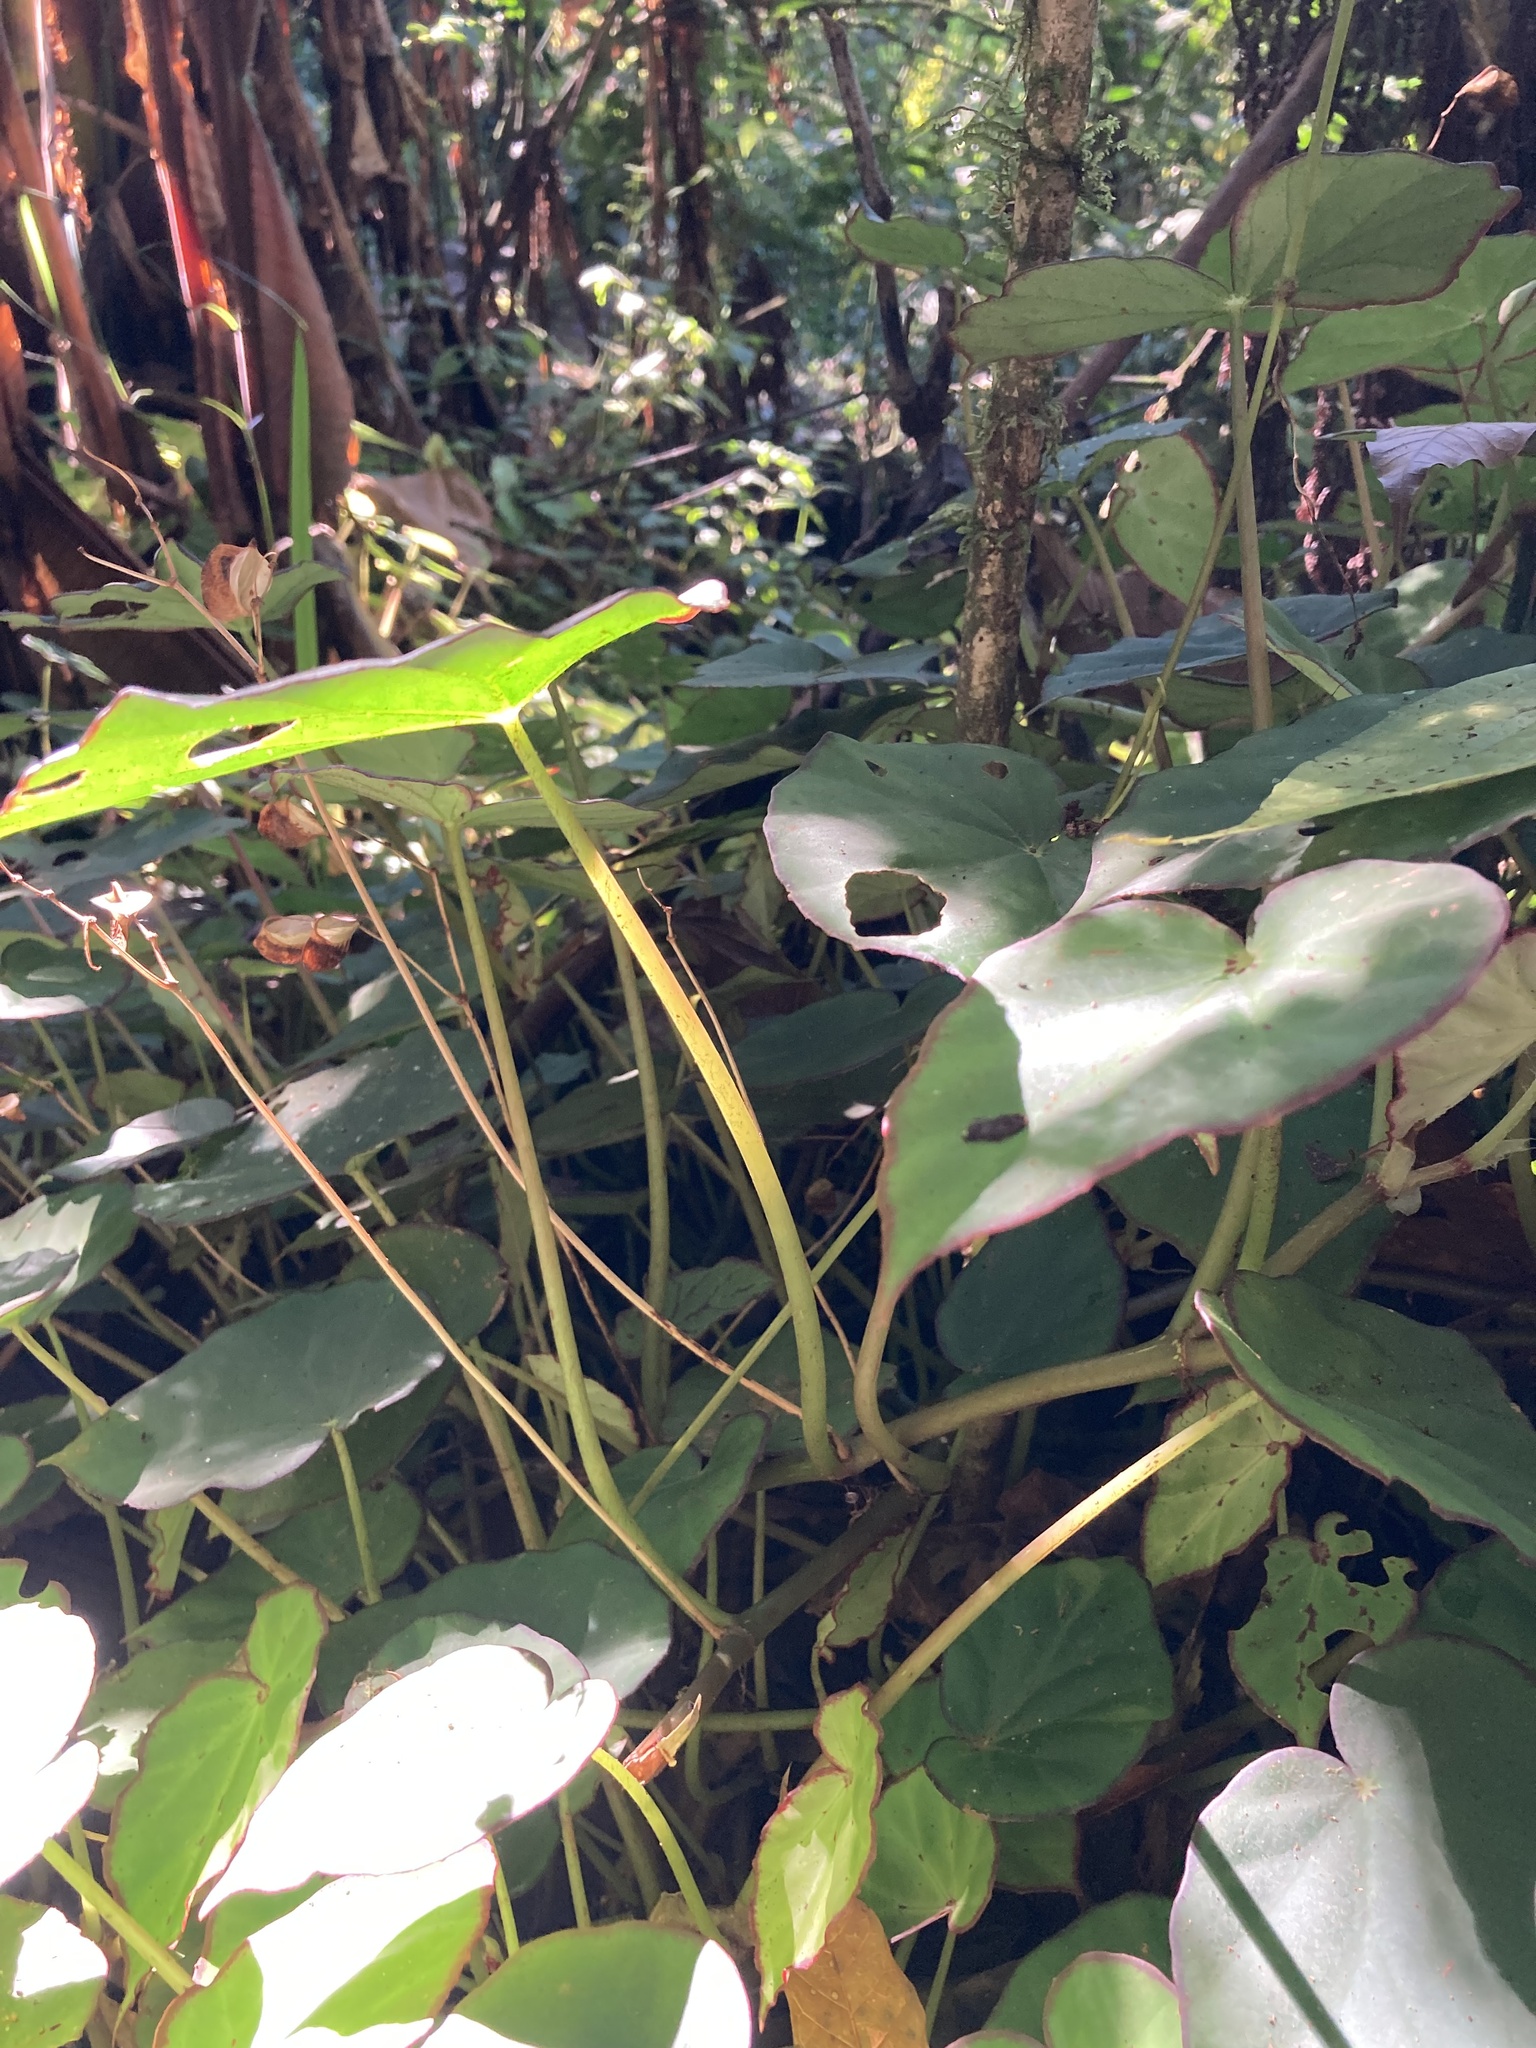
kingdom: Plantae
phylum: Tracheophyta
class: Magnoliopsida
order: Cucurbitales
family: Begoniaceae
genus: Begonia
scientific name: Begonia sartorii
